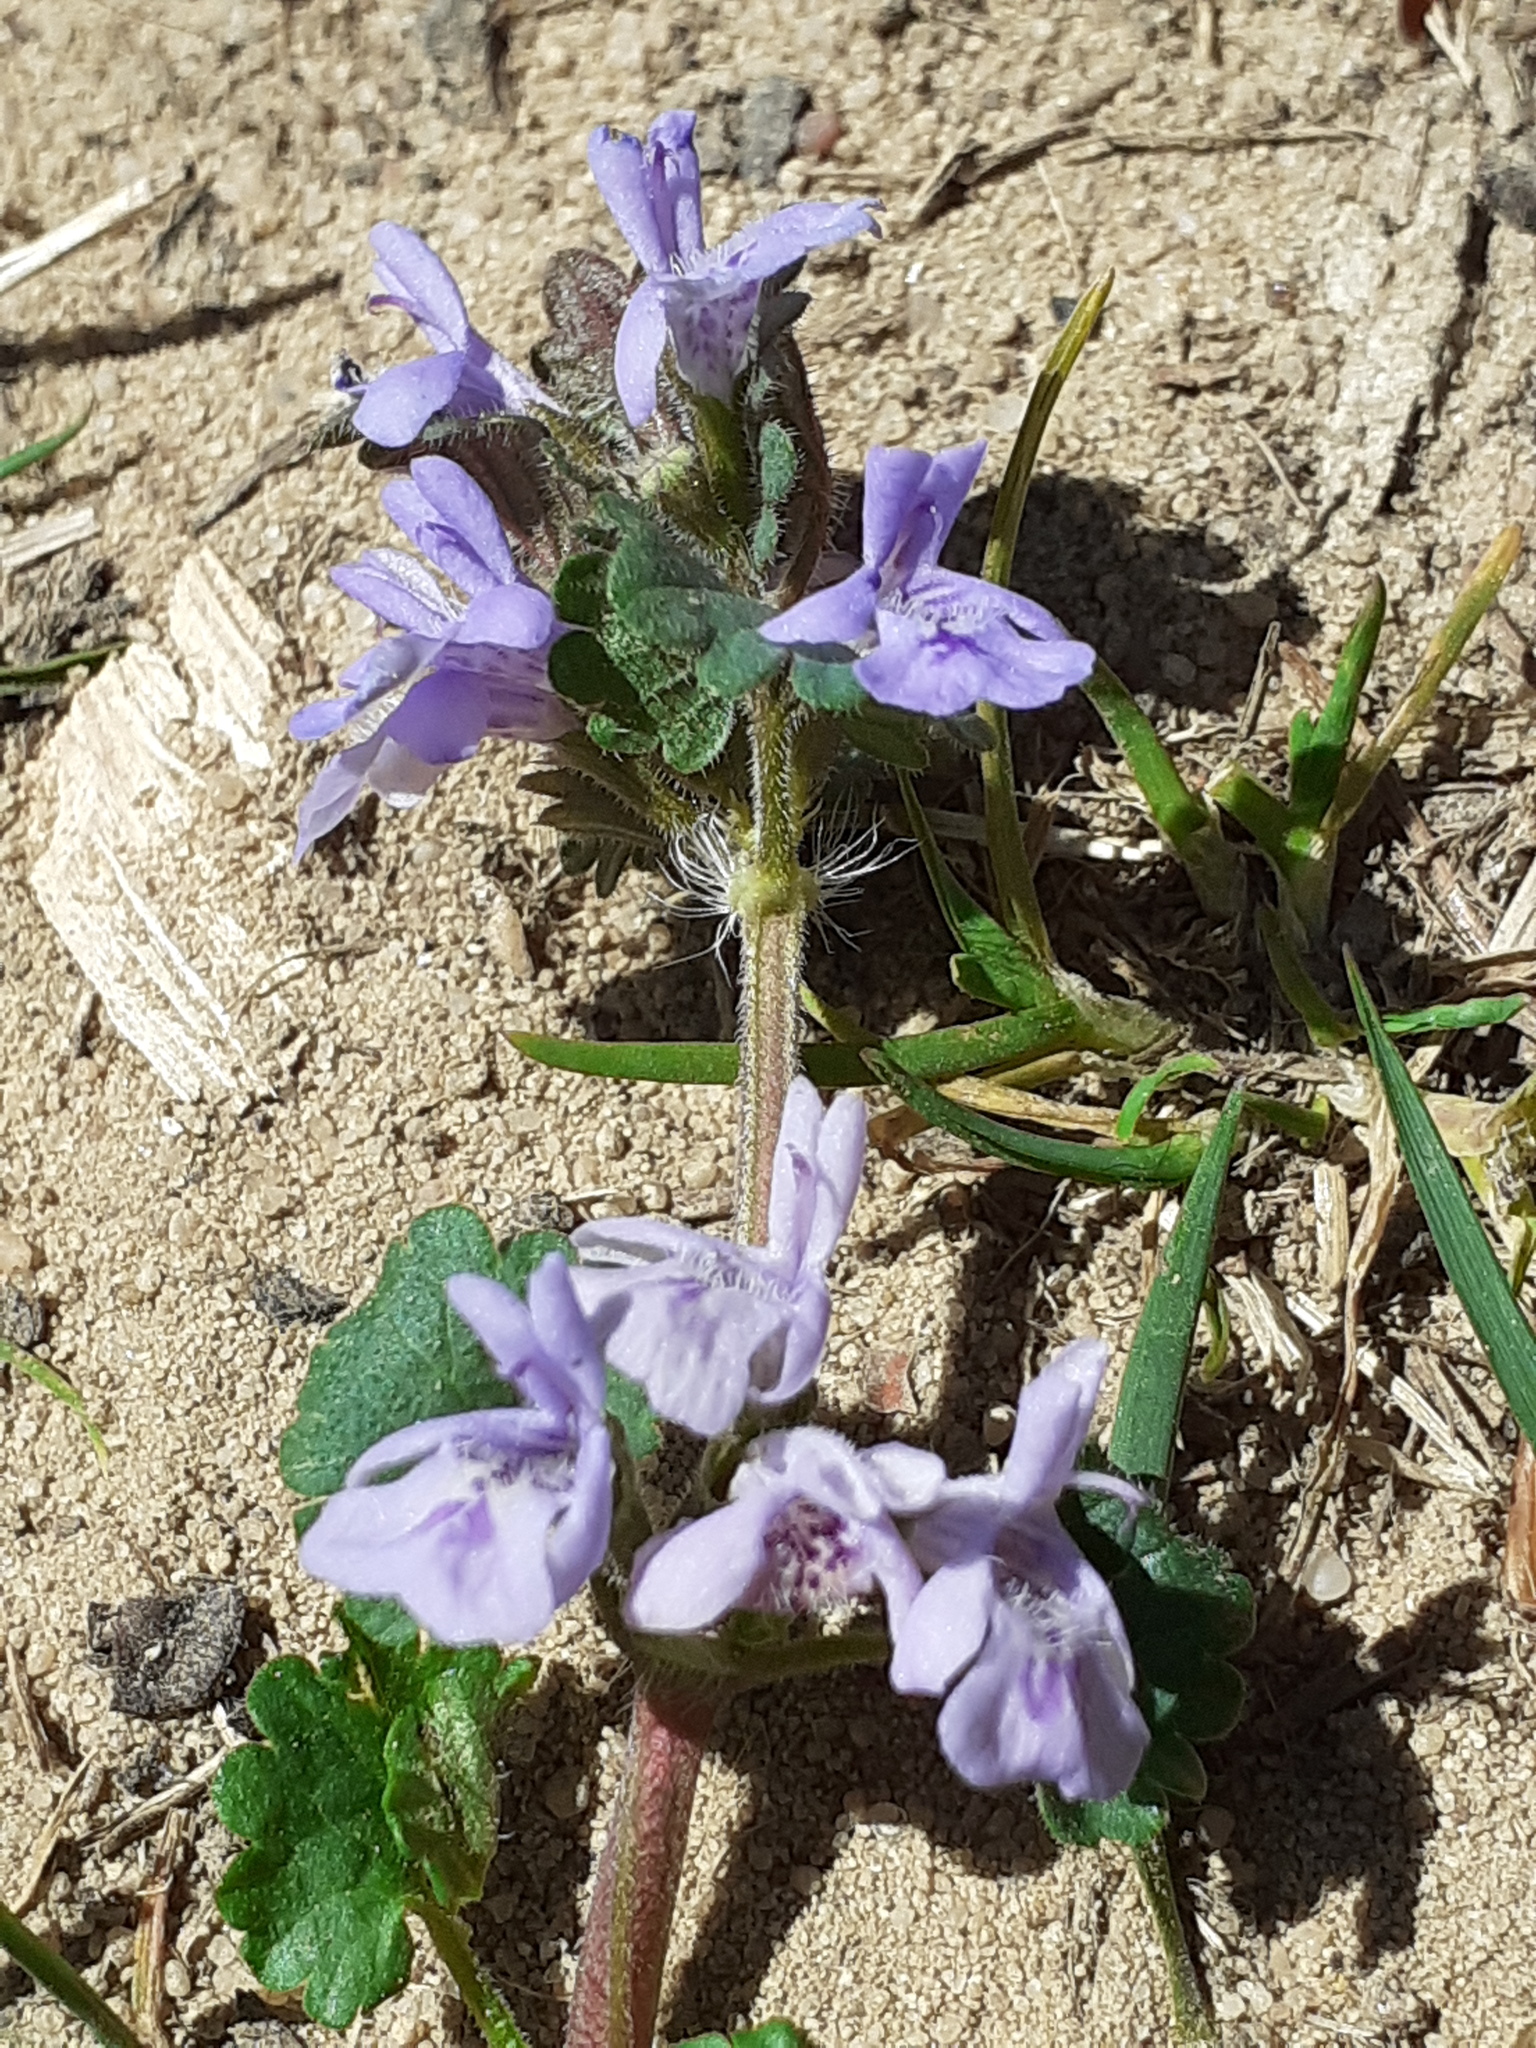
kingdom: Plantae
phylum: Tracheophyta
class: Magnoliopsida
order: Lamiales
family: Lamiaceae
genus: Glechoma
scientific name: Glechoma hederacea
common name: Ground ivy
